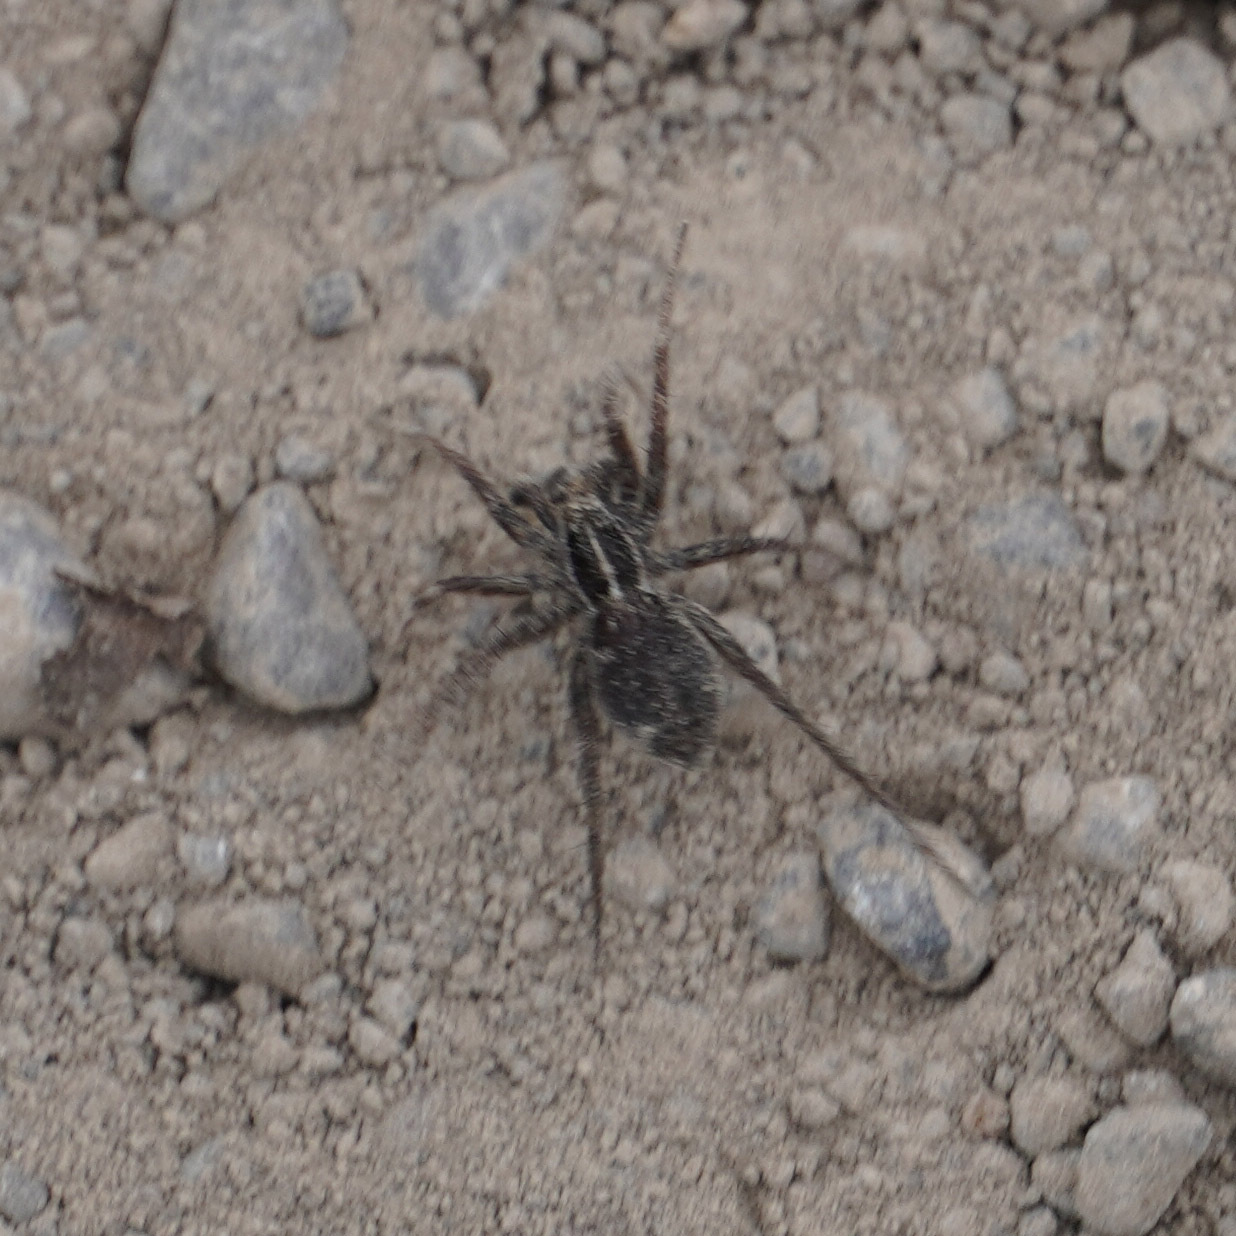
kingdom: Animalia
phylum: Arthropoda
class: Arachnida
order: Araneae
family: Lycosidae
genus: Pardosa
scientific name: Pardosa palustris
